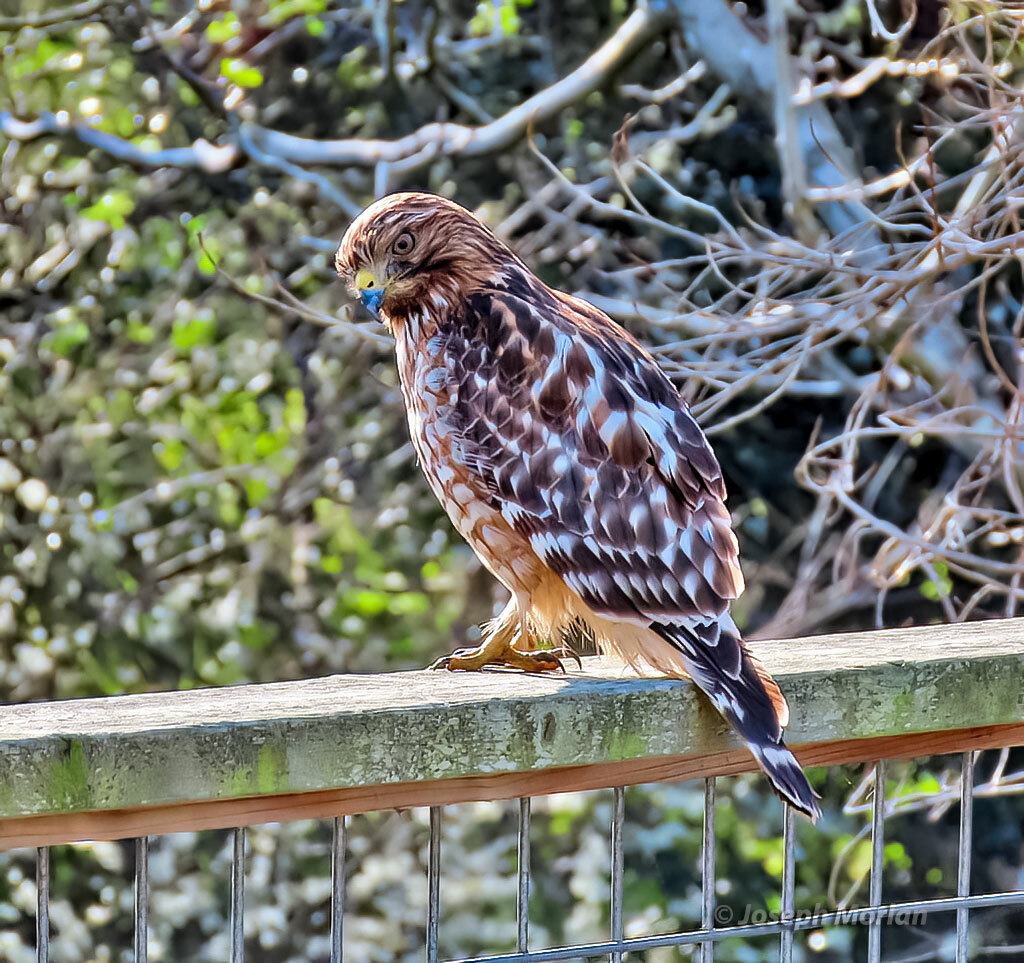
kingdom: Animalia
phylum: Chordata
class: Aves
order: Accipitriformes
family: Accipitridae
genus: Buteo
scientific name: Buteo lineatus
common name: Red-shouldered hawk
